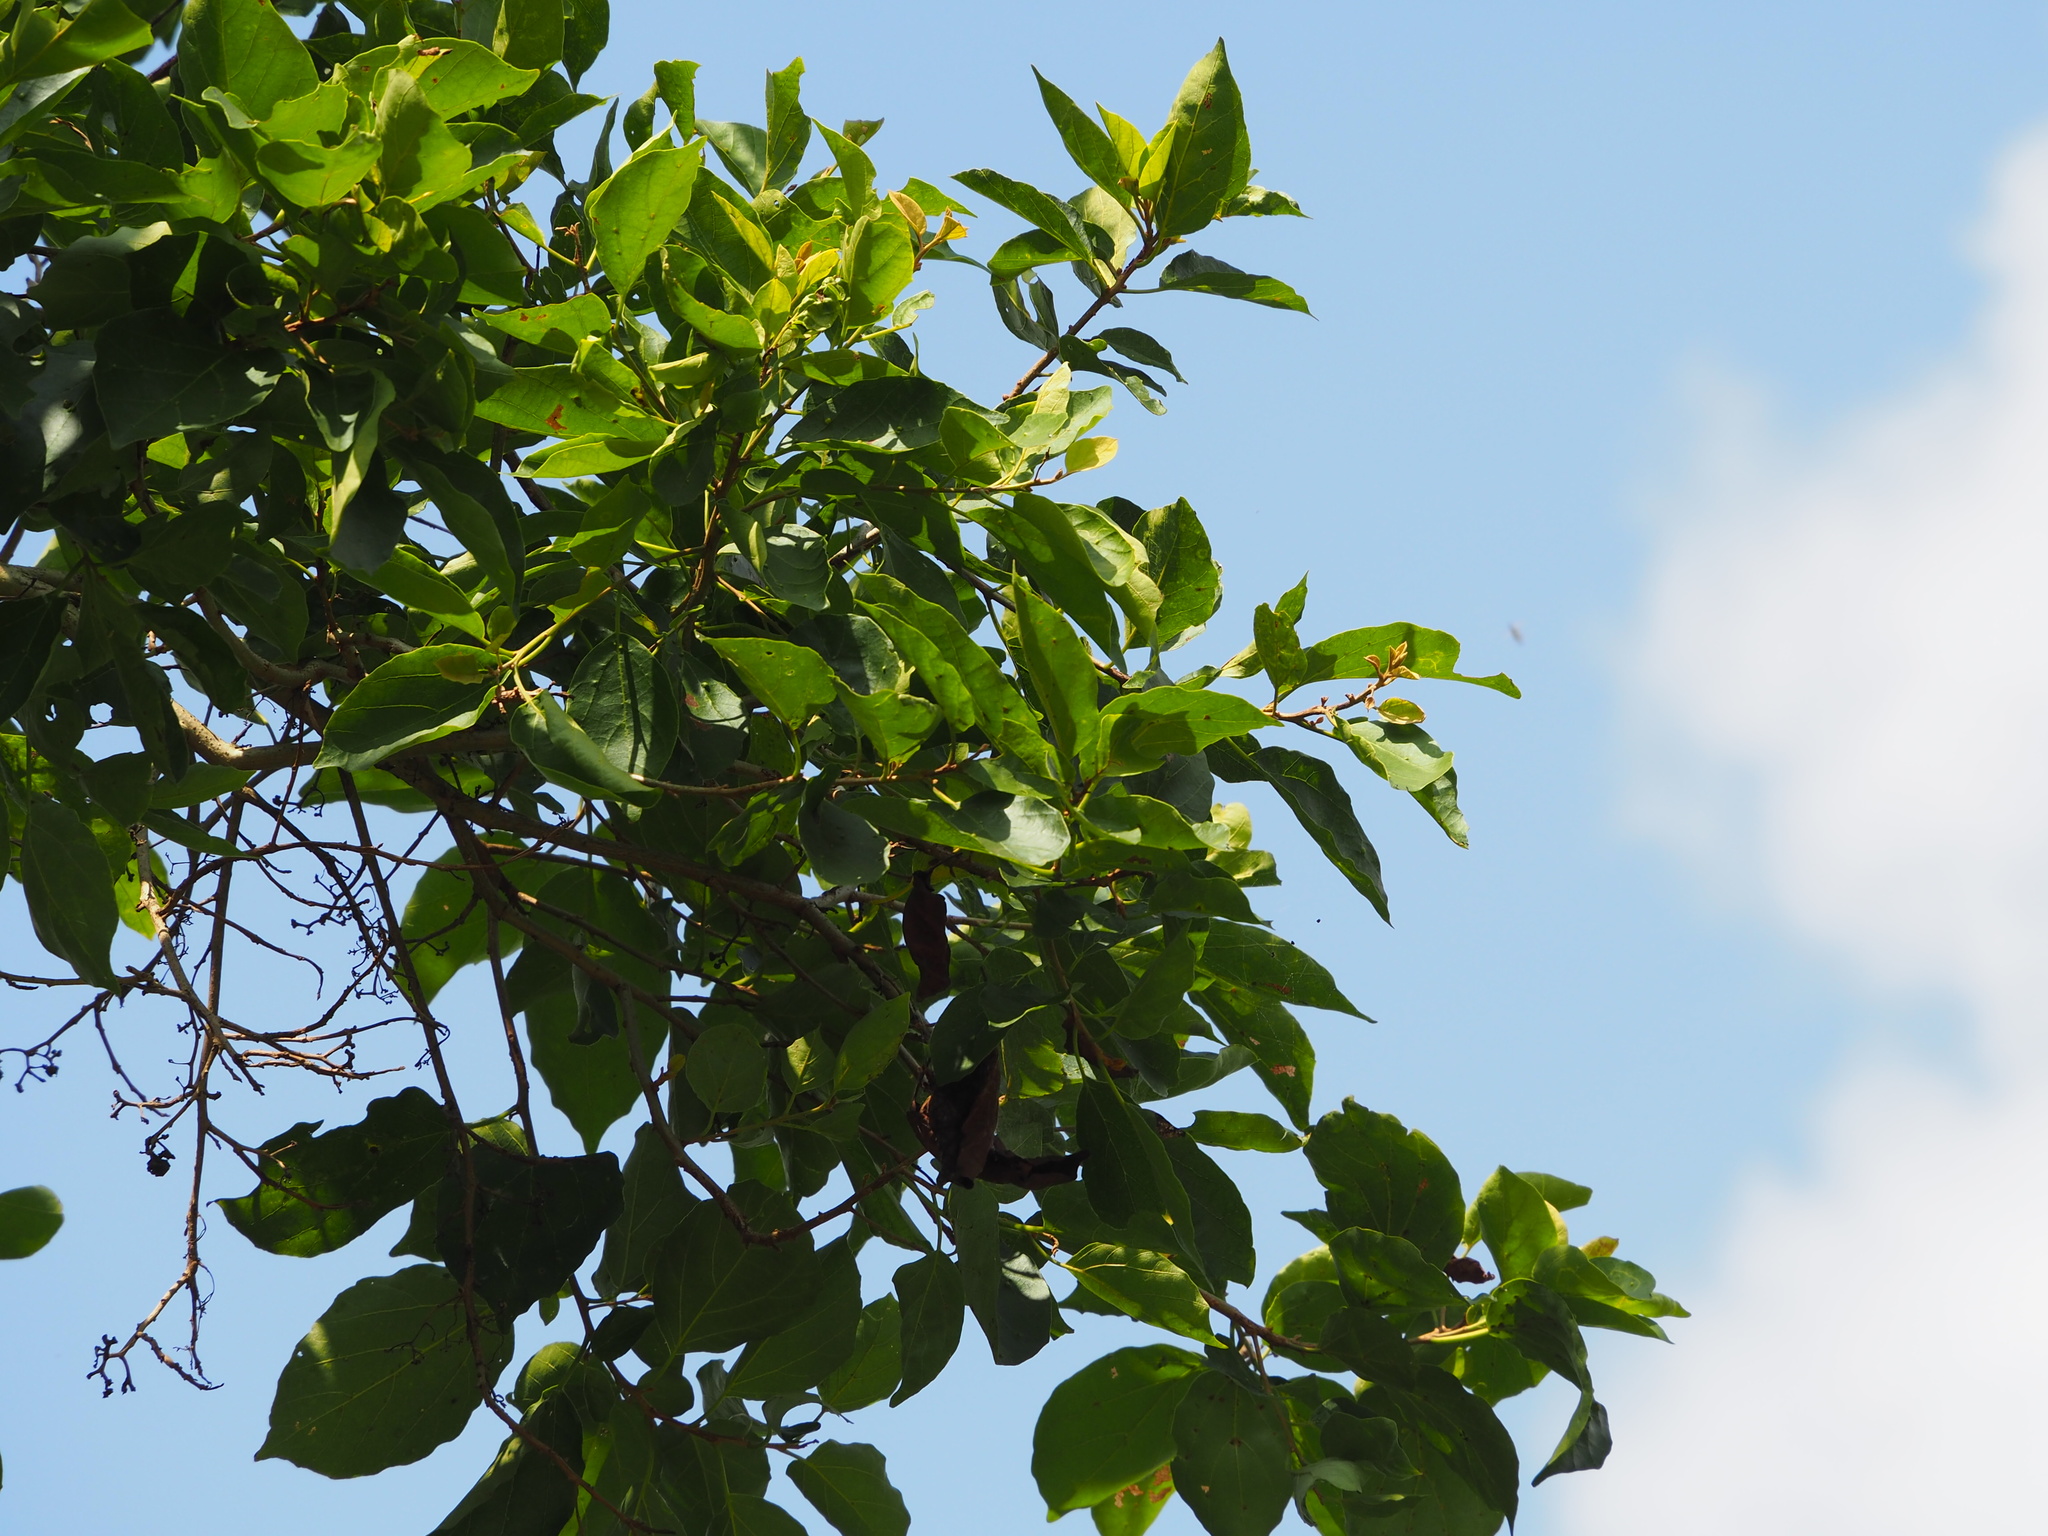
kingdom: Plantae
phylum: Tracheophyta
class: Magnoliopsida
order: Boraginales
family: Cordiaceae
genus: Cordia
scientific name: Cordia dichotoma
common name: Fragrant manjack
